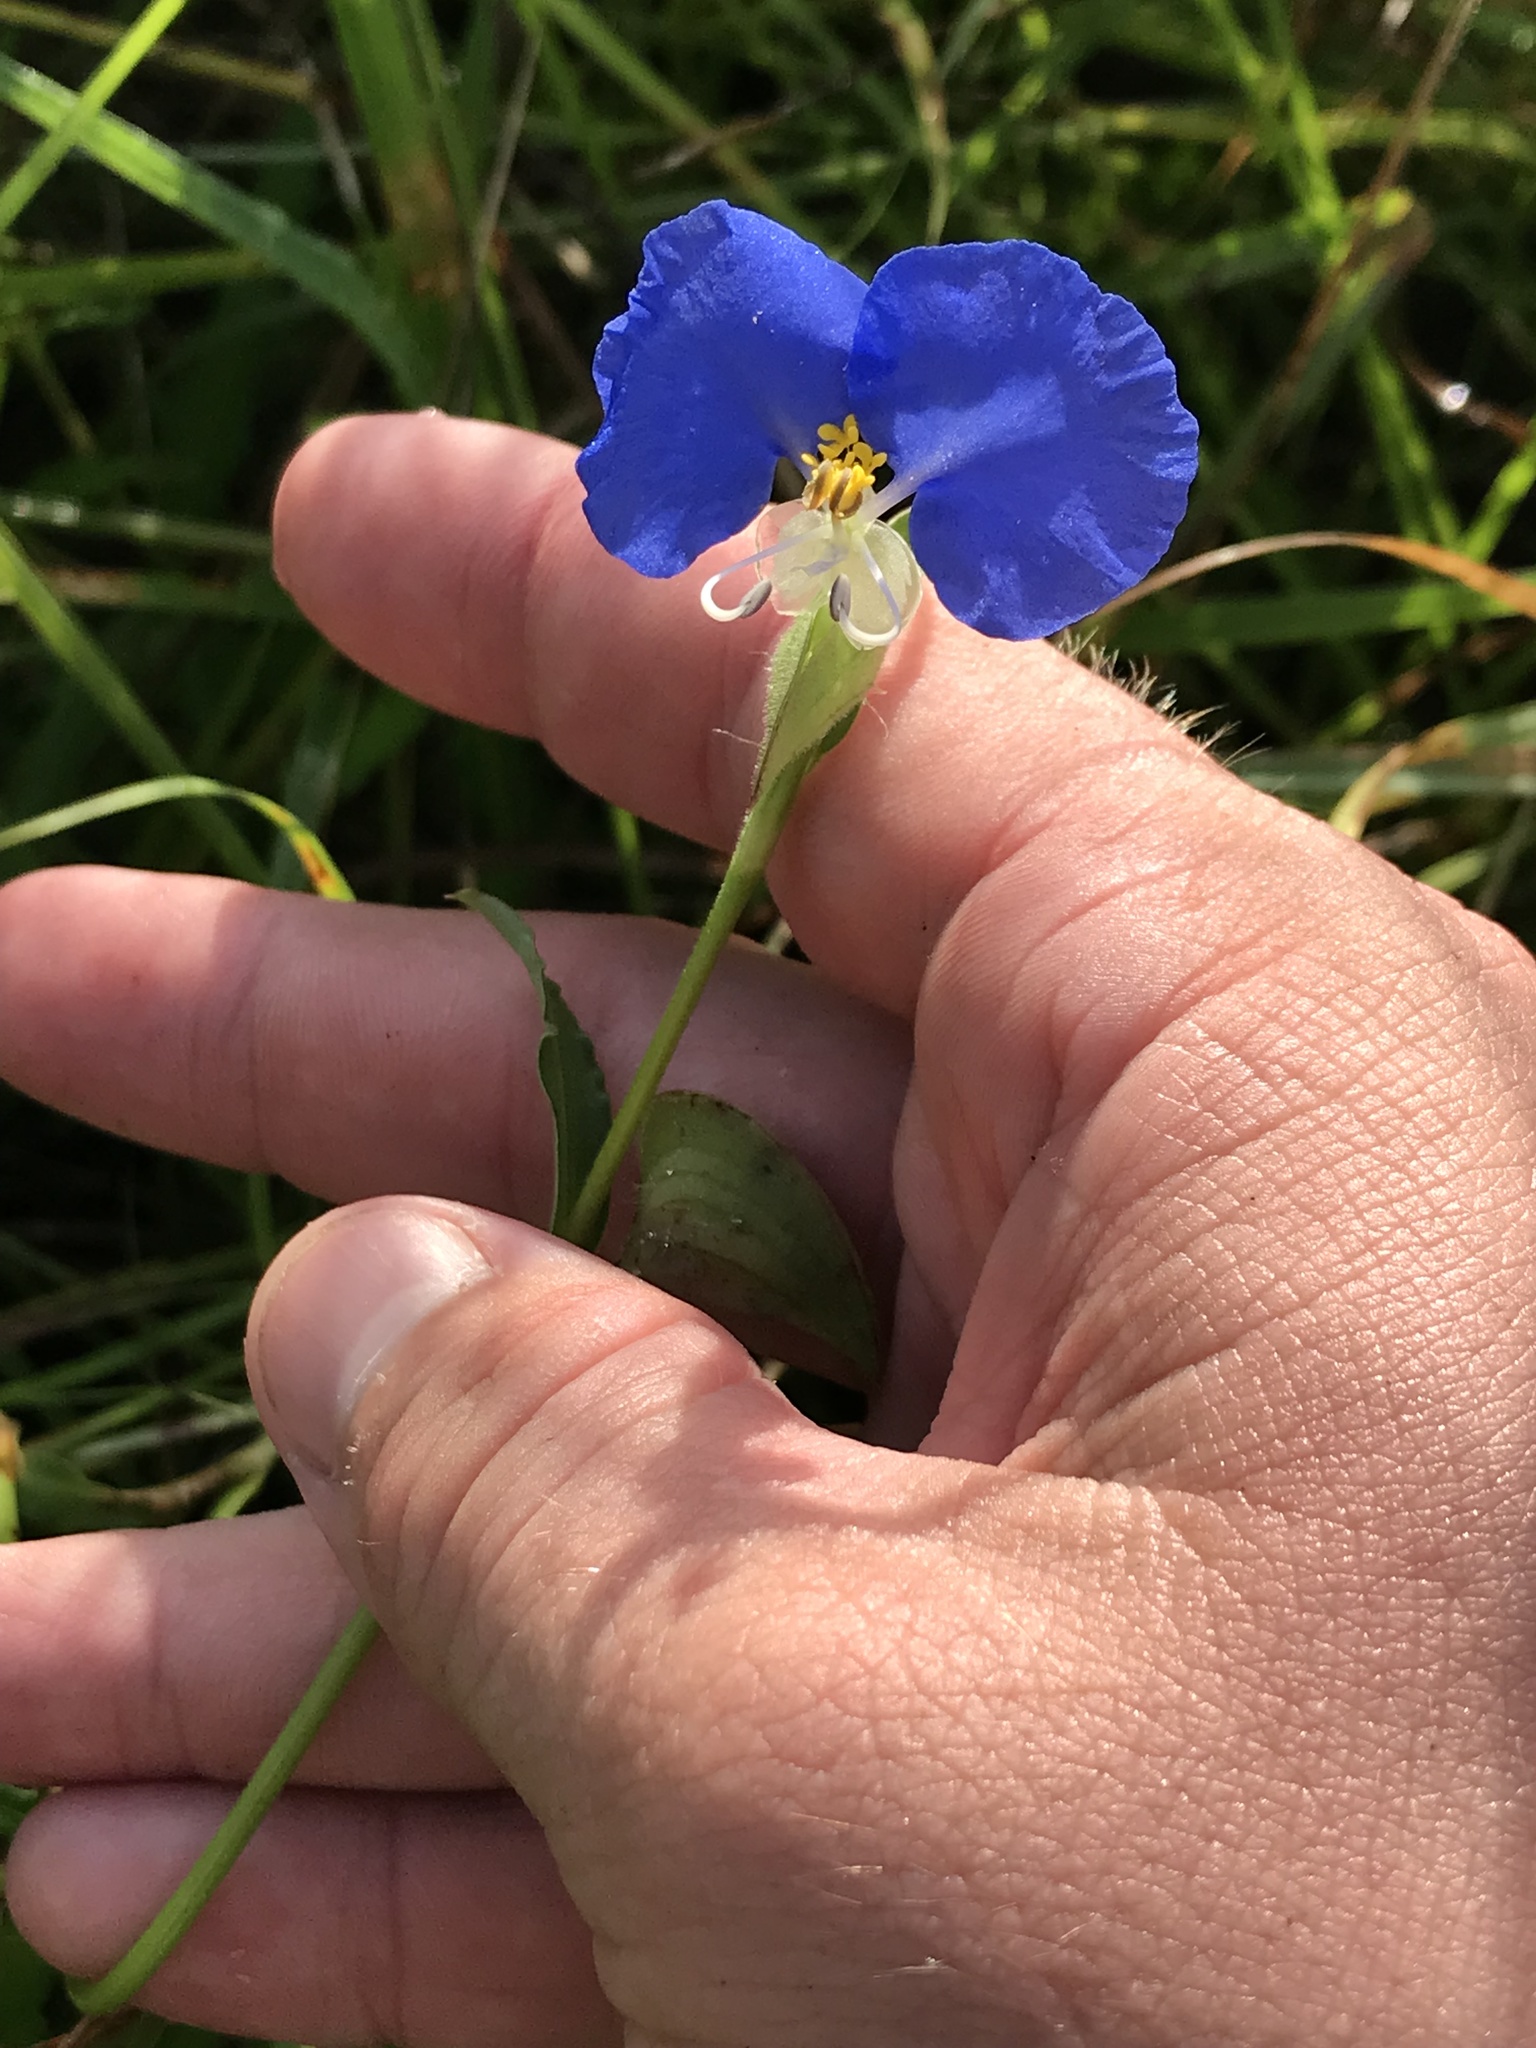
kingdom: Plantae
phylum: Tracheophyta
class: Liliopsida
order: Commelinales
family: Commelinaceae
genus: Commelina
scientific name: Commelina erecta
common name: Blousel blommetjie
